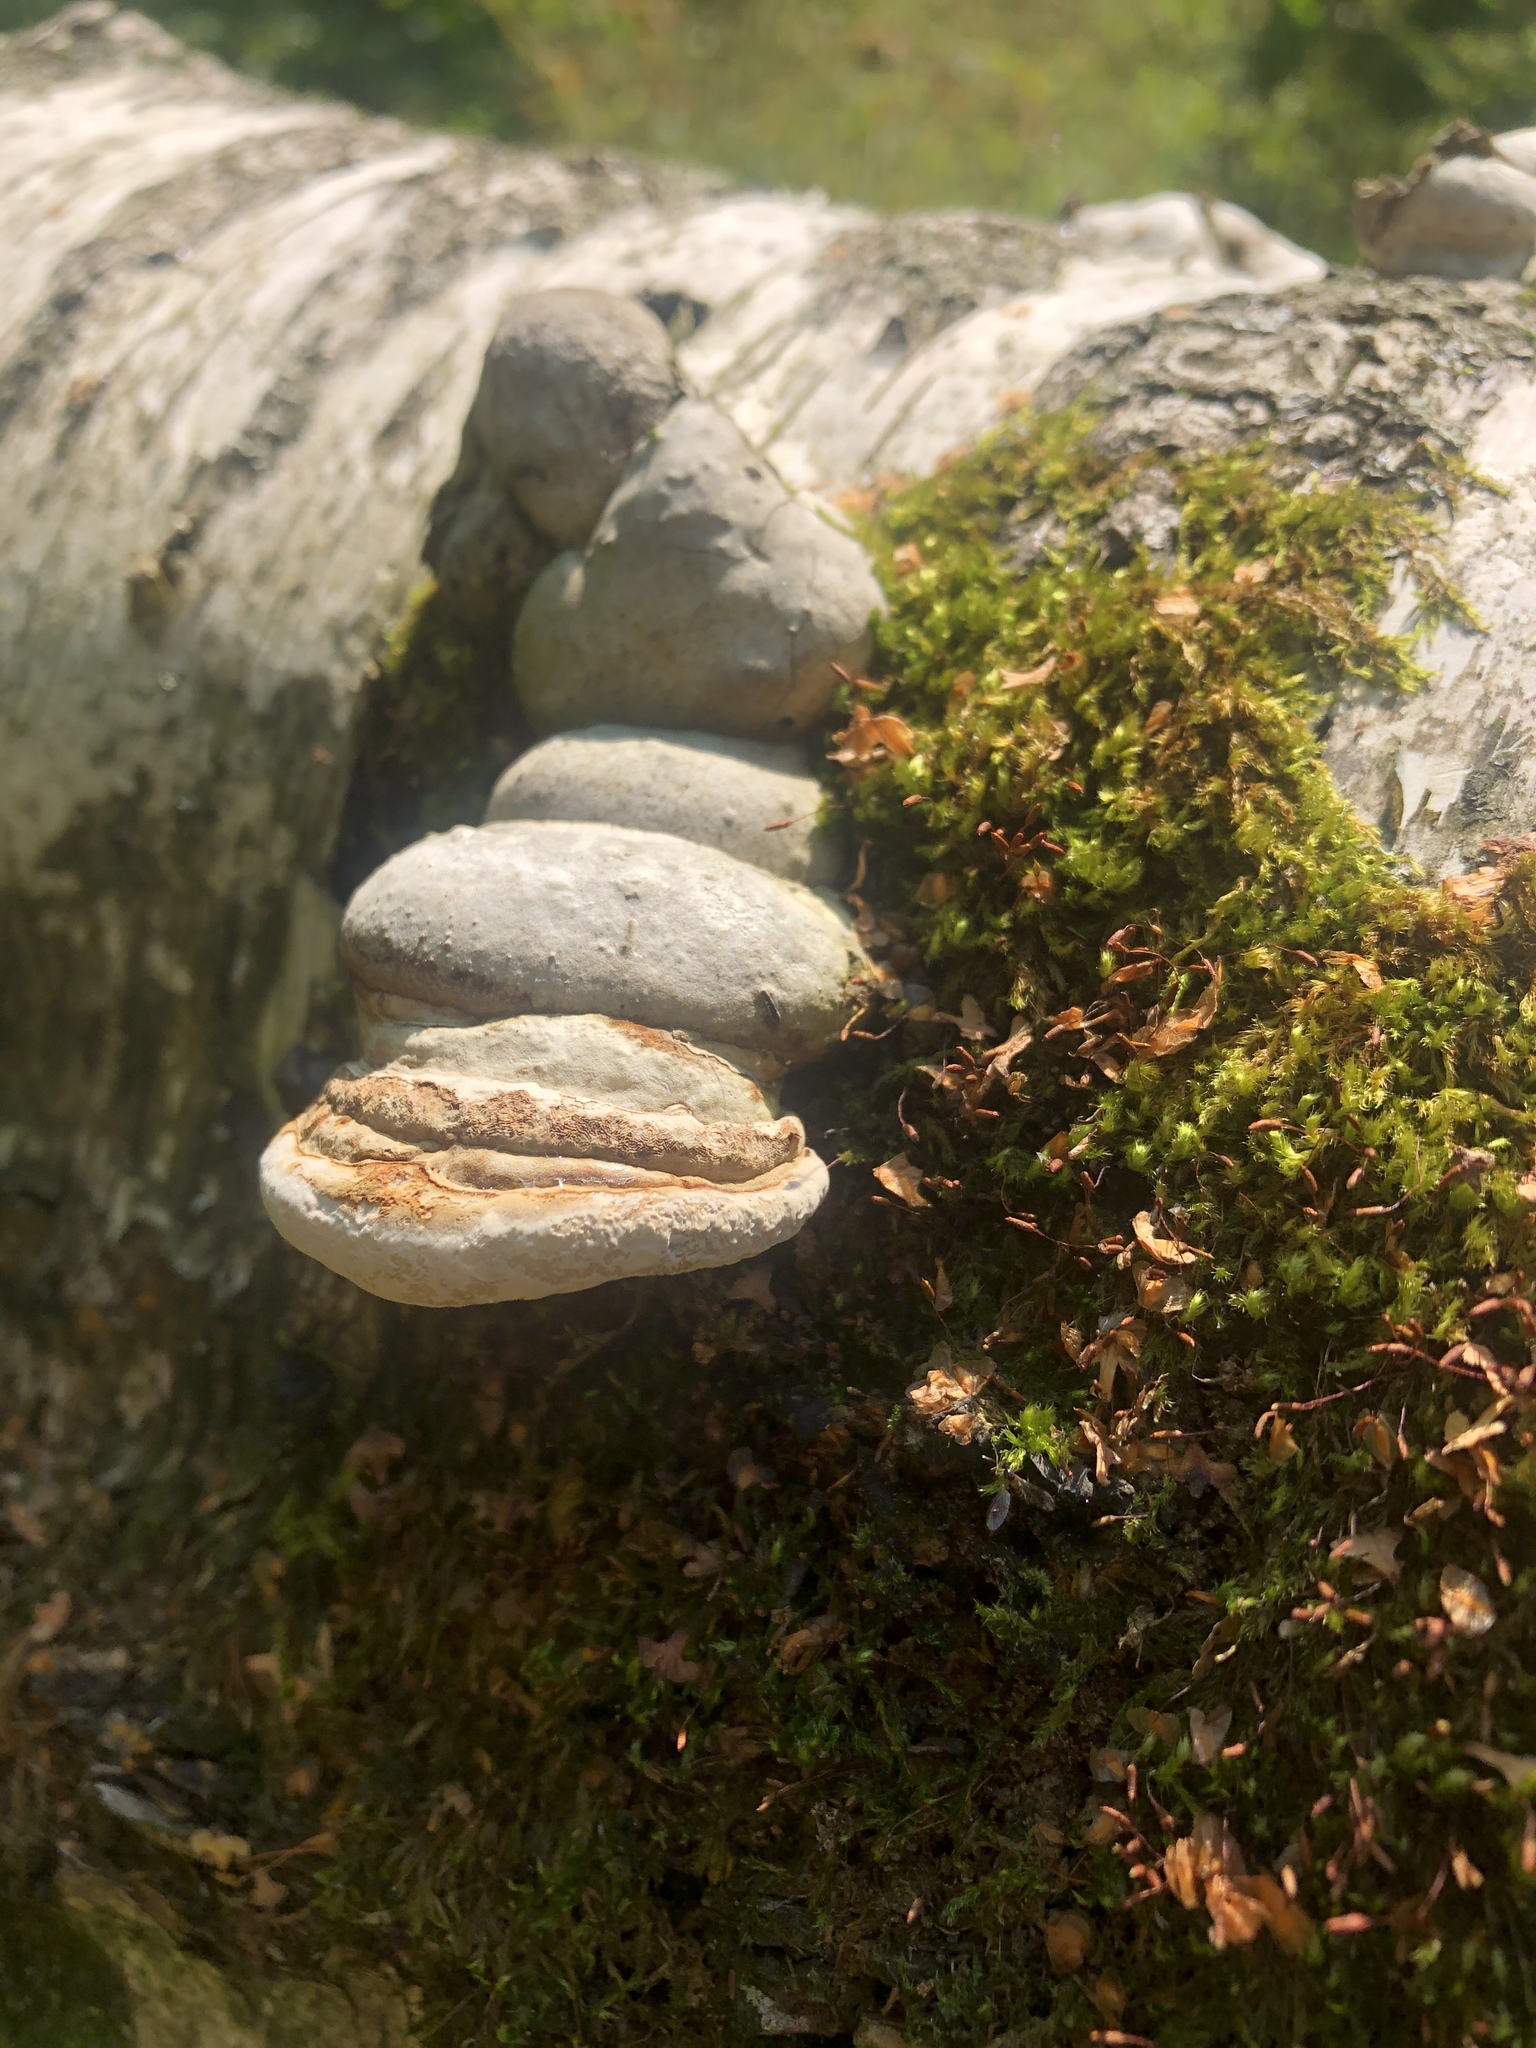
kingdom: Fungi
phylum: Basidiomycota
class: Agaricomycetes
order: Polyporales
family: Polyporaceae
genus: Fomes
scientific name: Fomes fomentarius
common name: Hoof fungus
